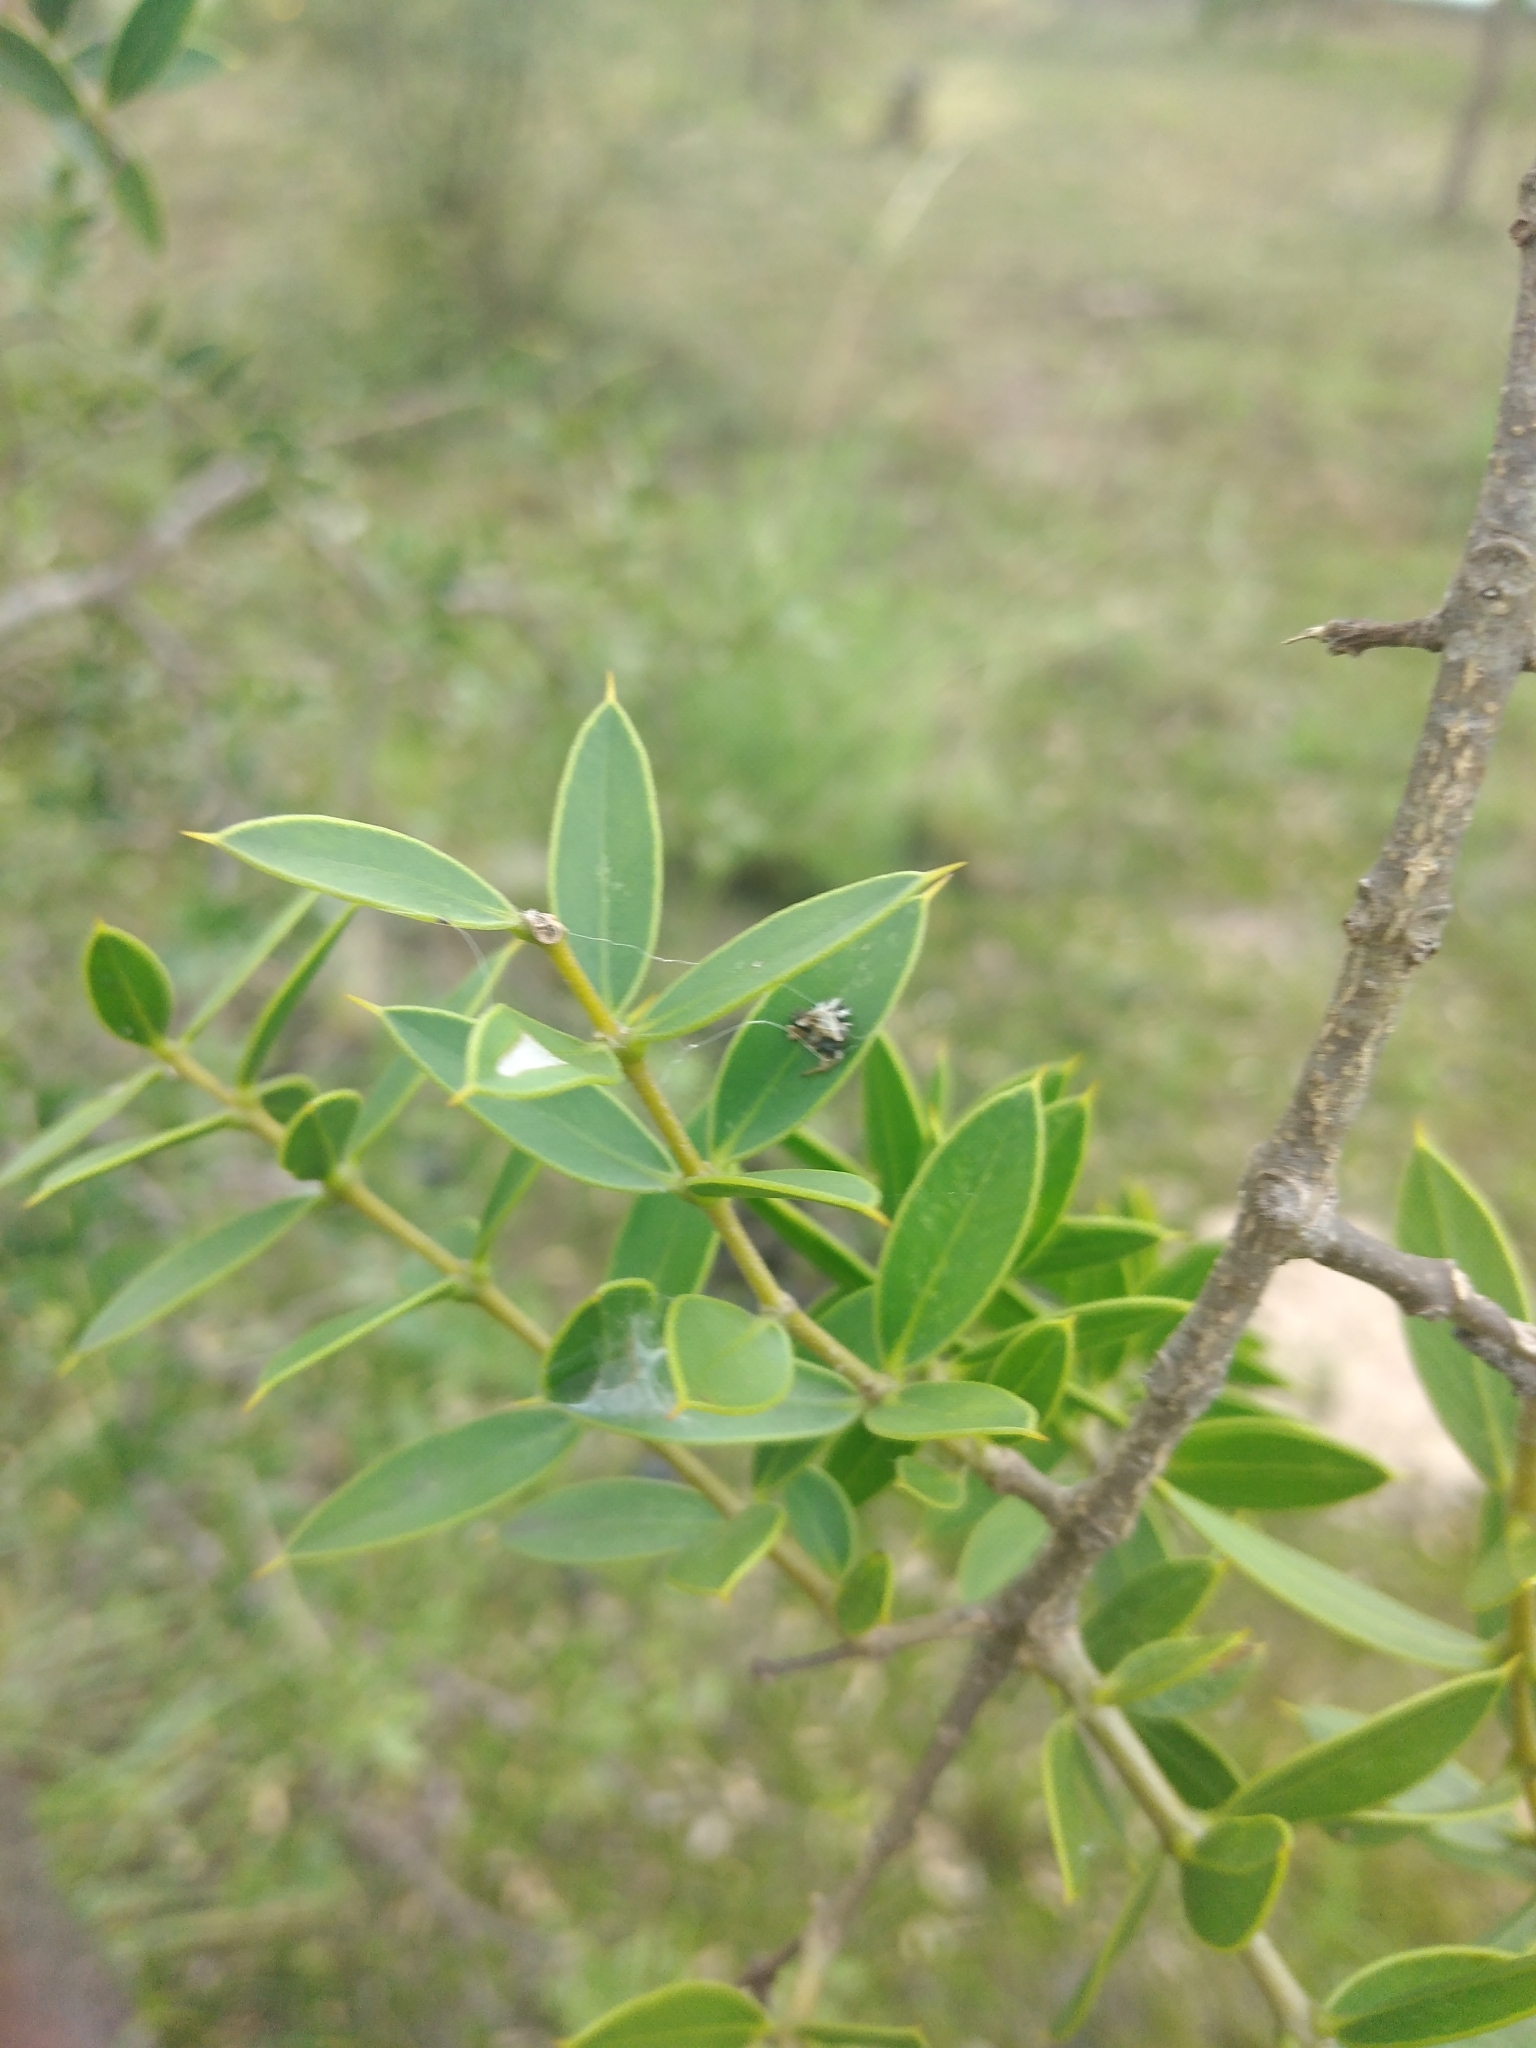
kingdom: Plantae
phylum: Tracheophyta
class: Magnoliopsida
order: Gentianales
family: Apocynaceae
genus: Aspidosperma
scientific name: Aspidosperma quebracho-blanco
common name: White quebracho
